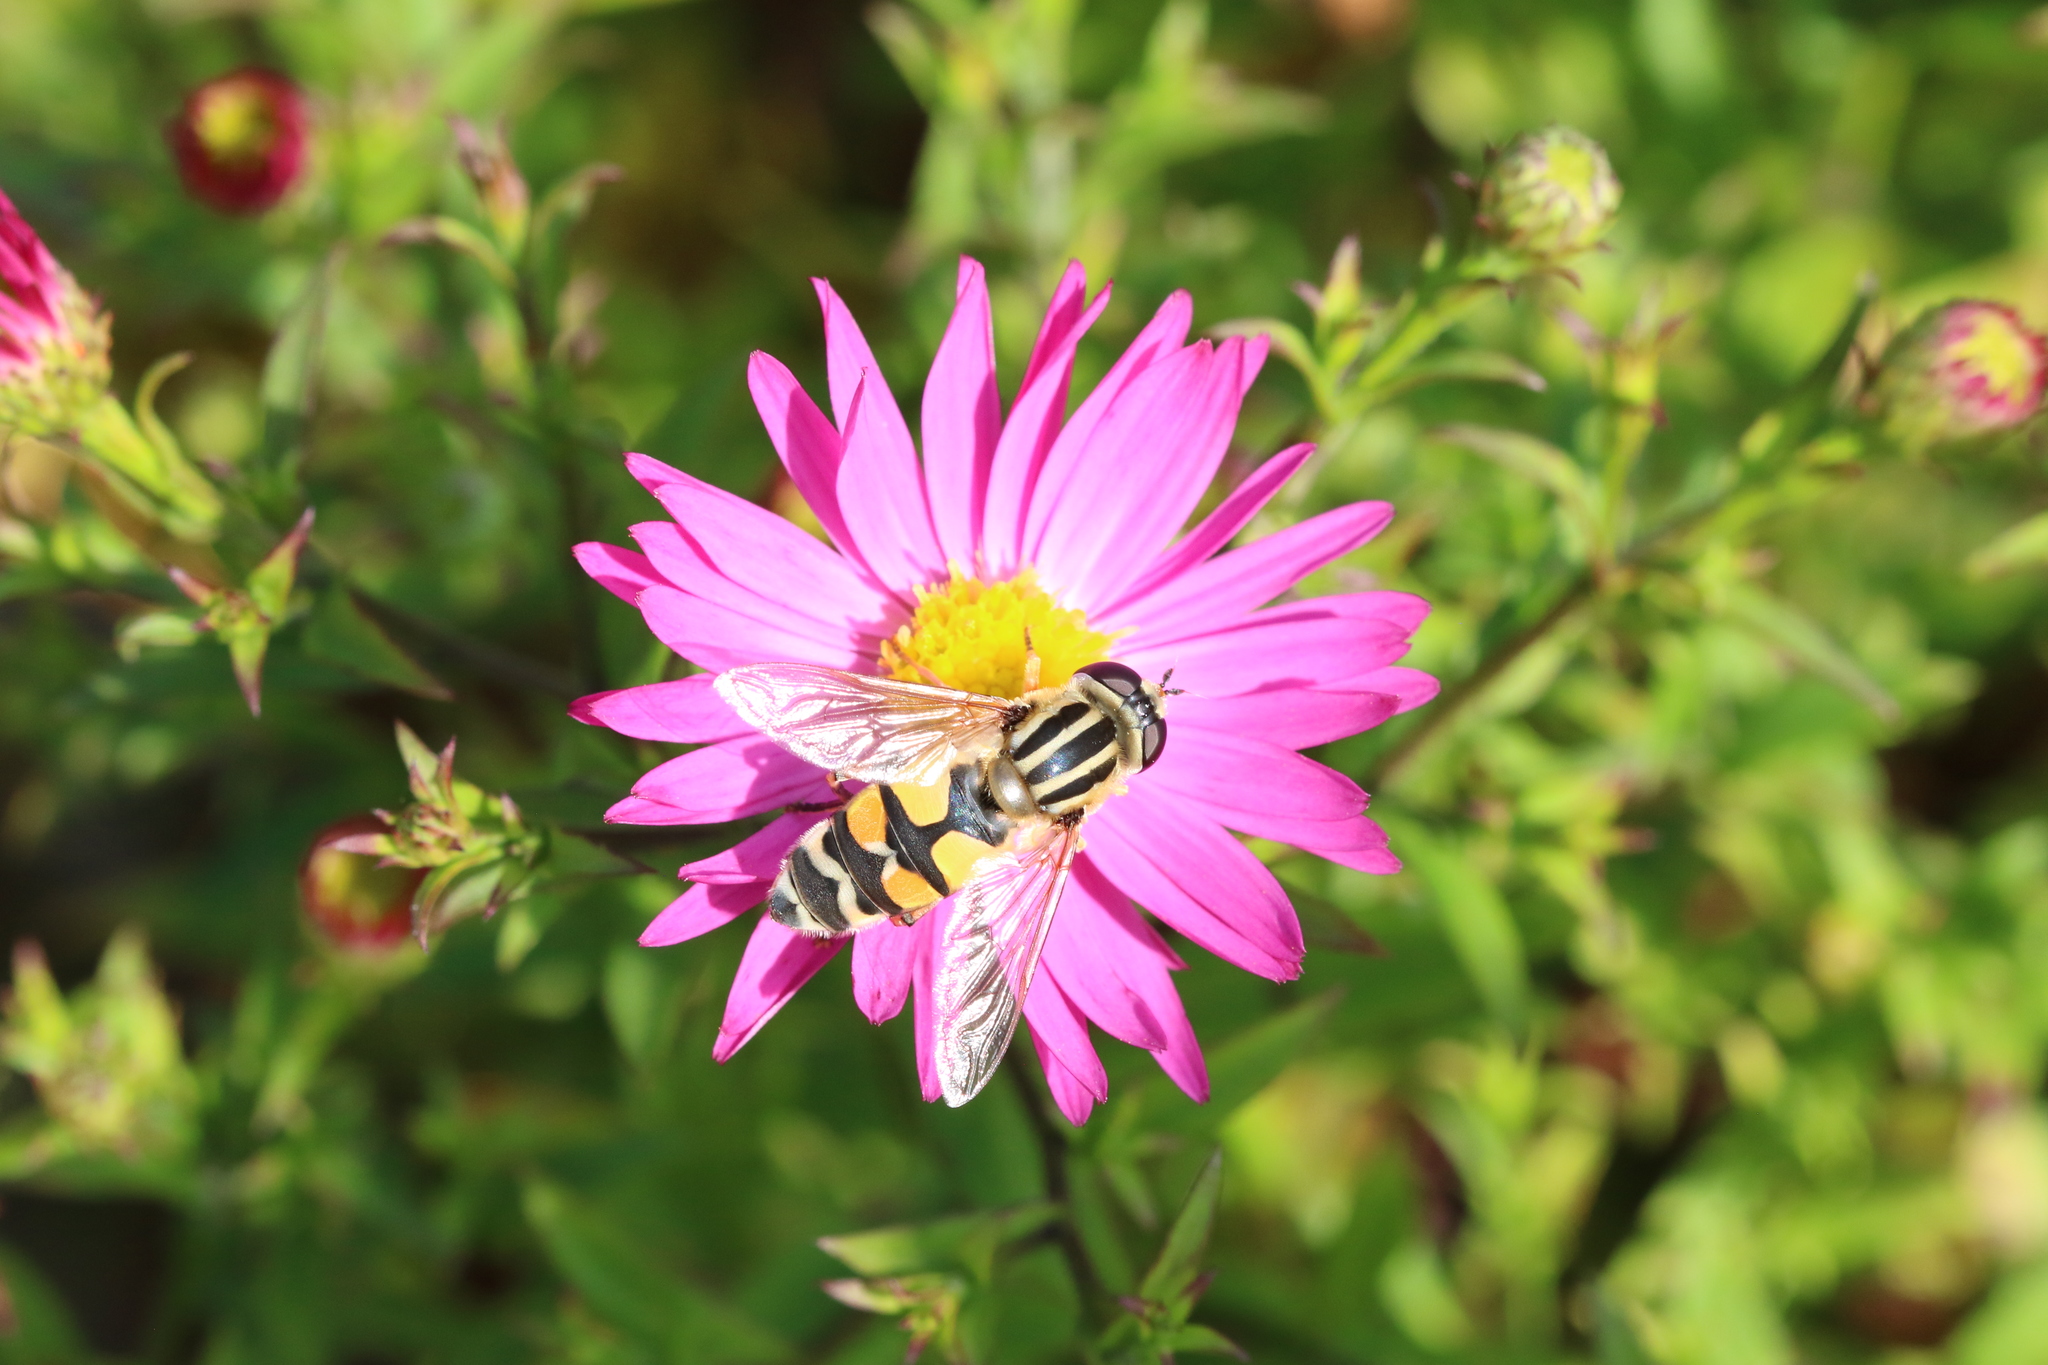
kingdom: Animalia
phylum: Arthropoda
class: Insecta
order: Diptera
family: Syrphidae
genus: Helophilus
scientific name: Helophilus trivittatus
